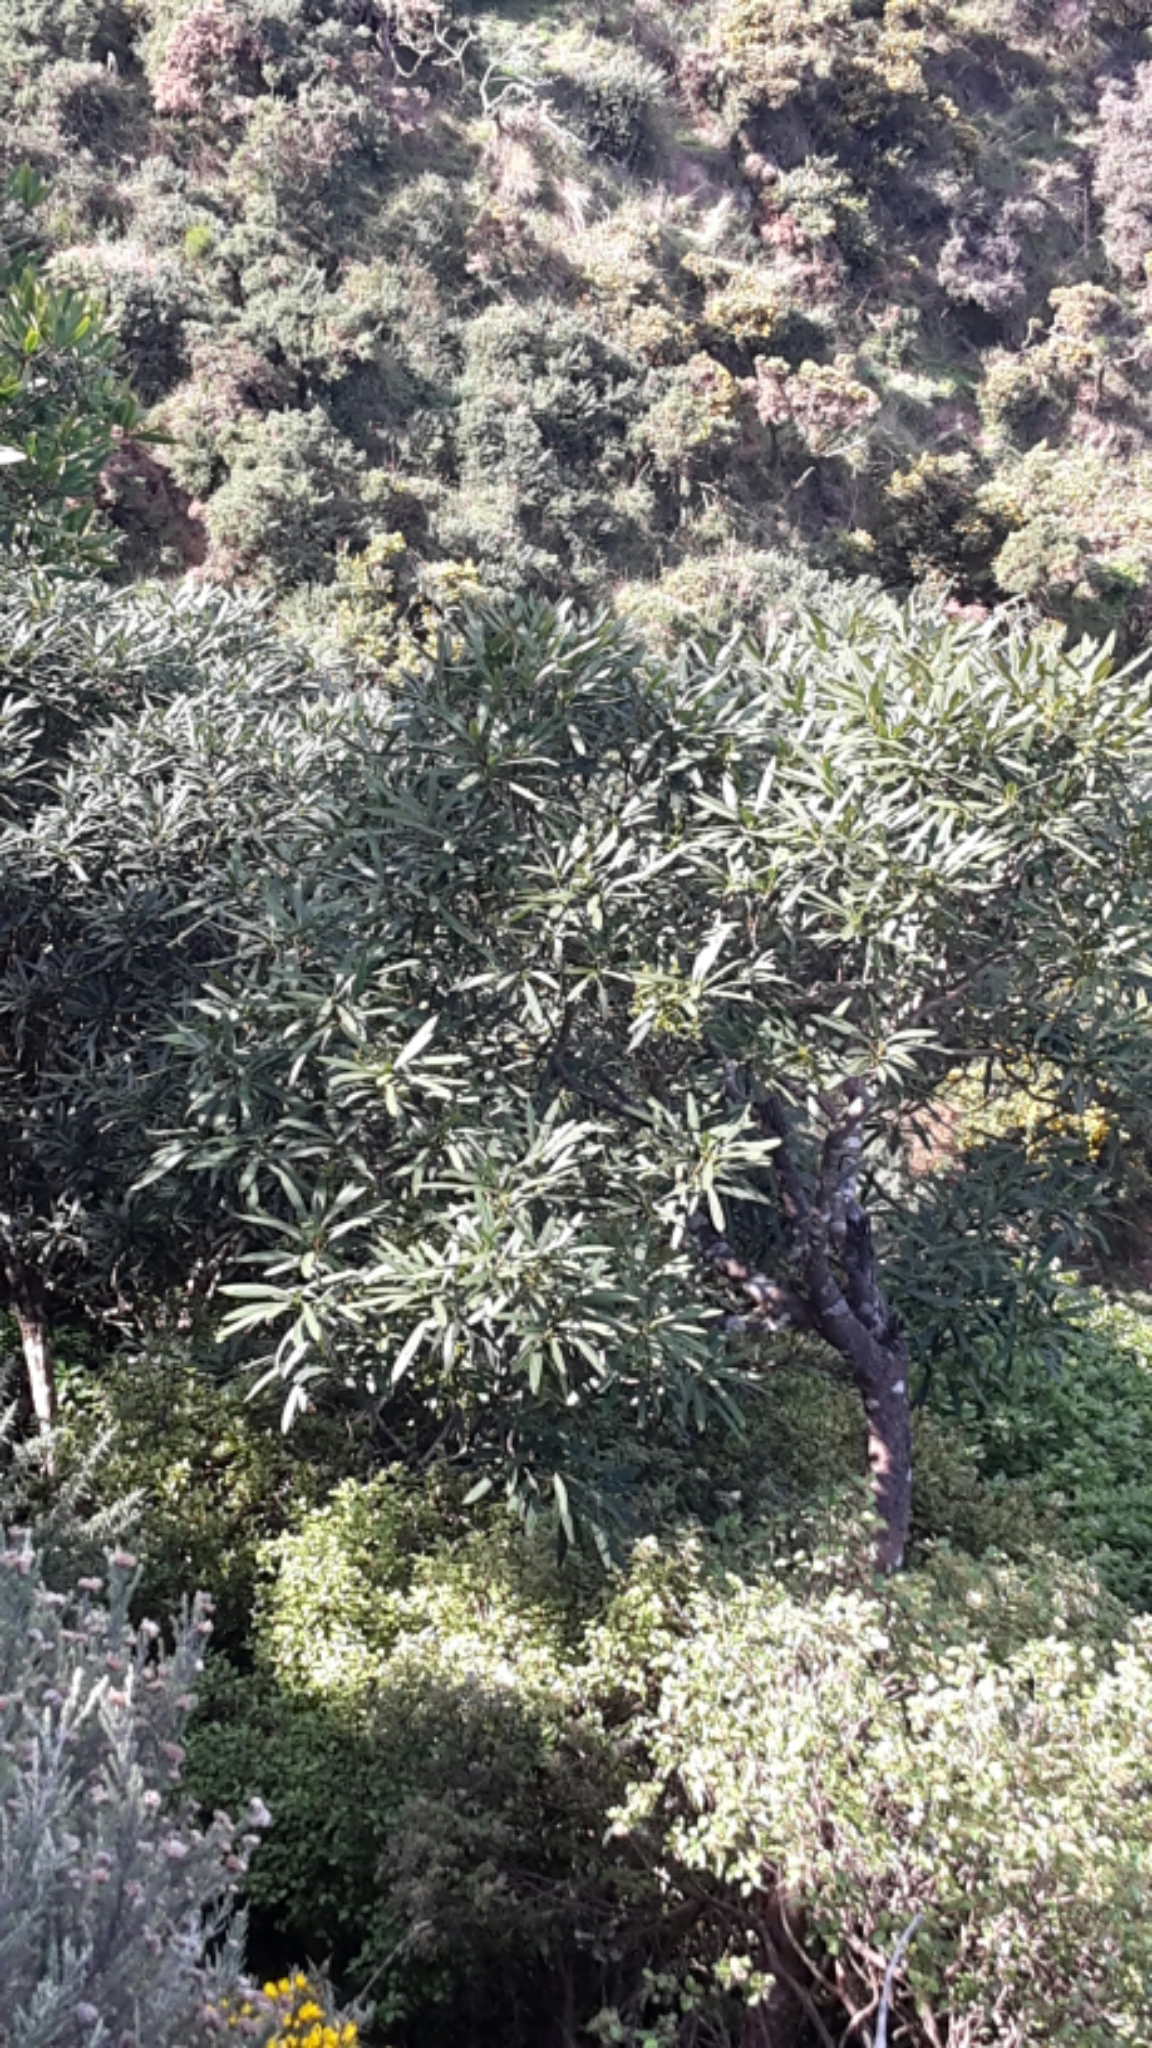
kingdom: Plantae
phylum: Tracheophyta
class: Magnoliopsida
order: Apiales
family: Araliaceae
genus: Pseudopanax
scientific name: Pseudopanax crassifolius
